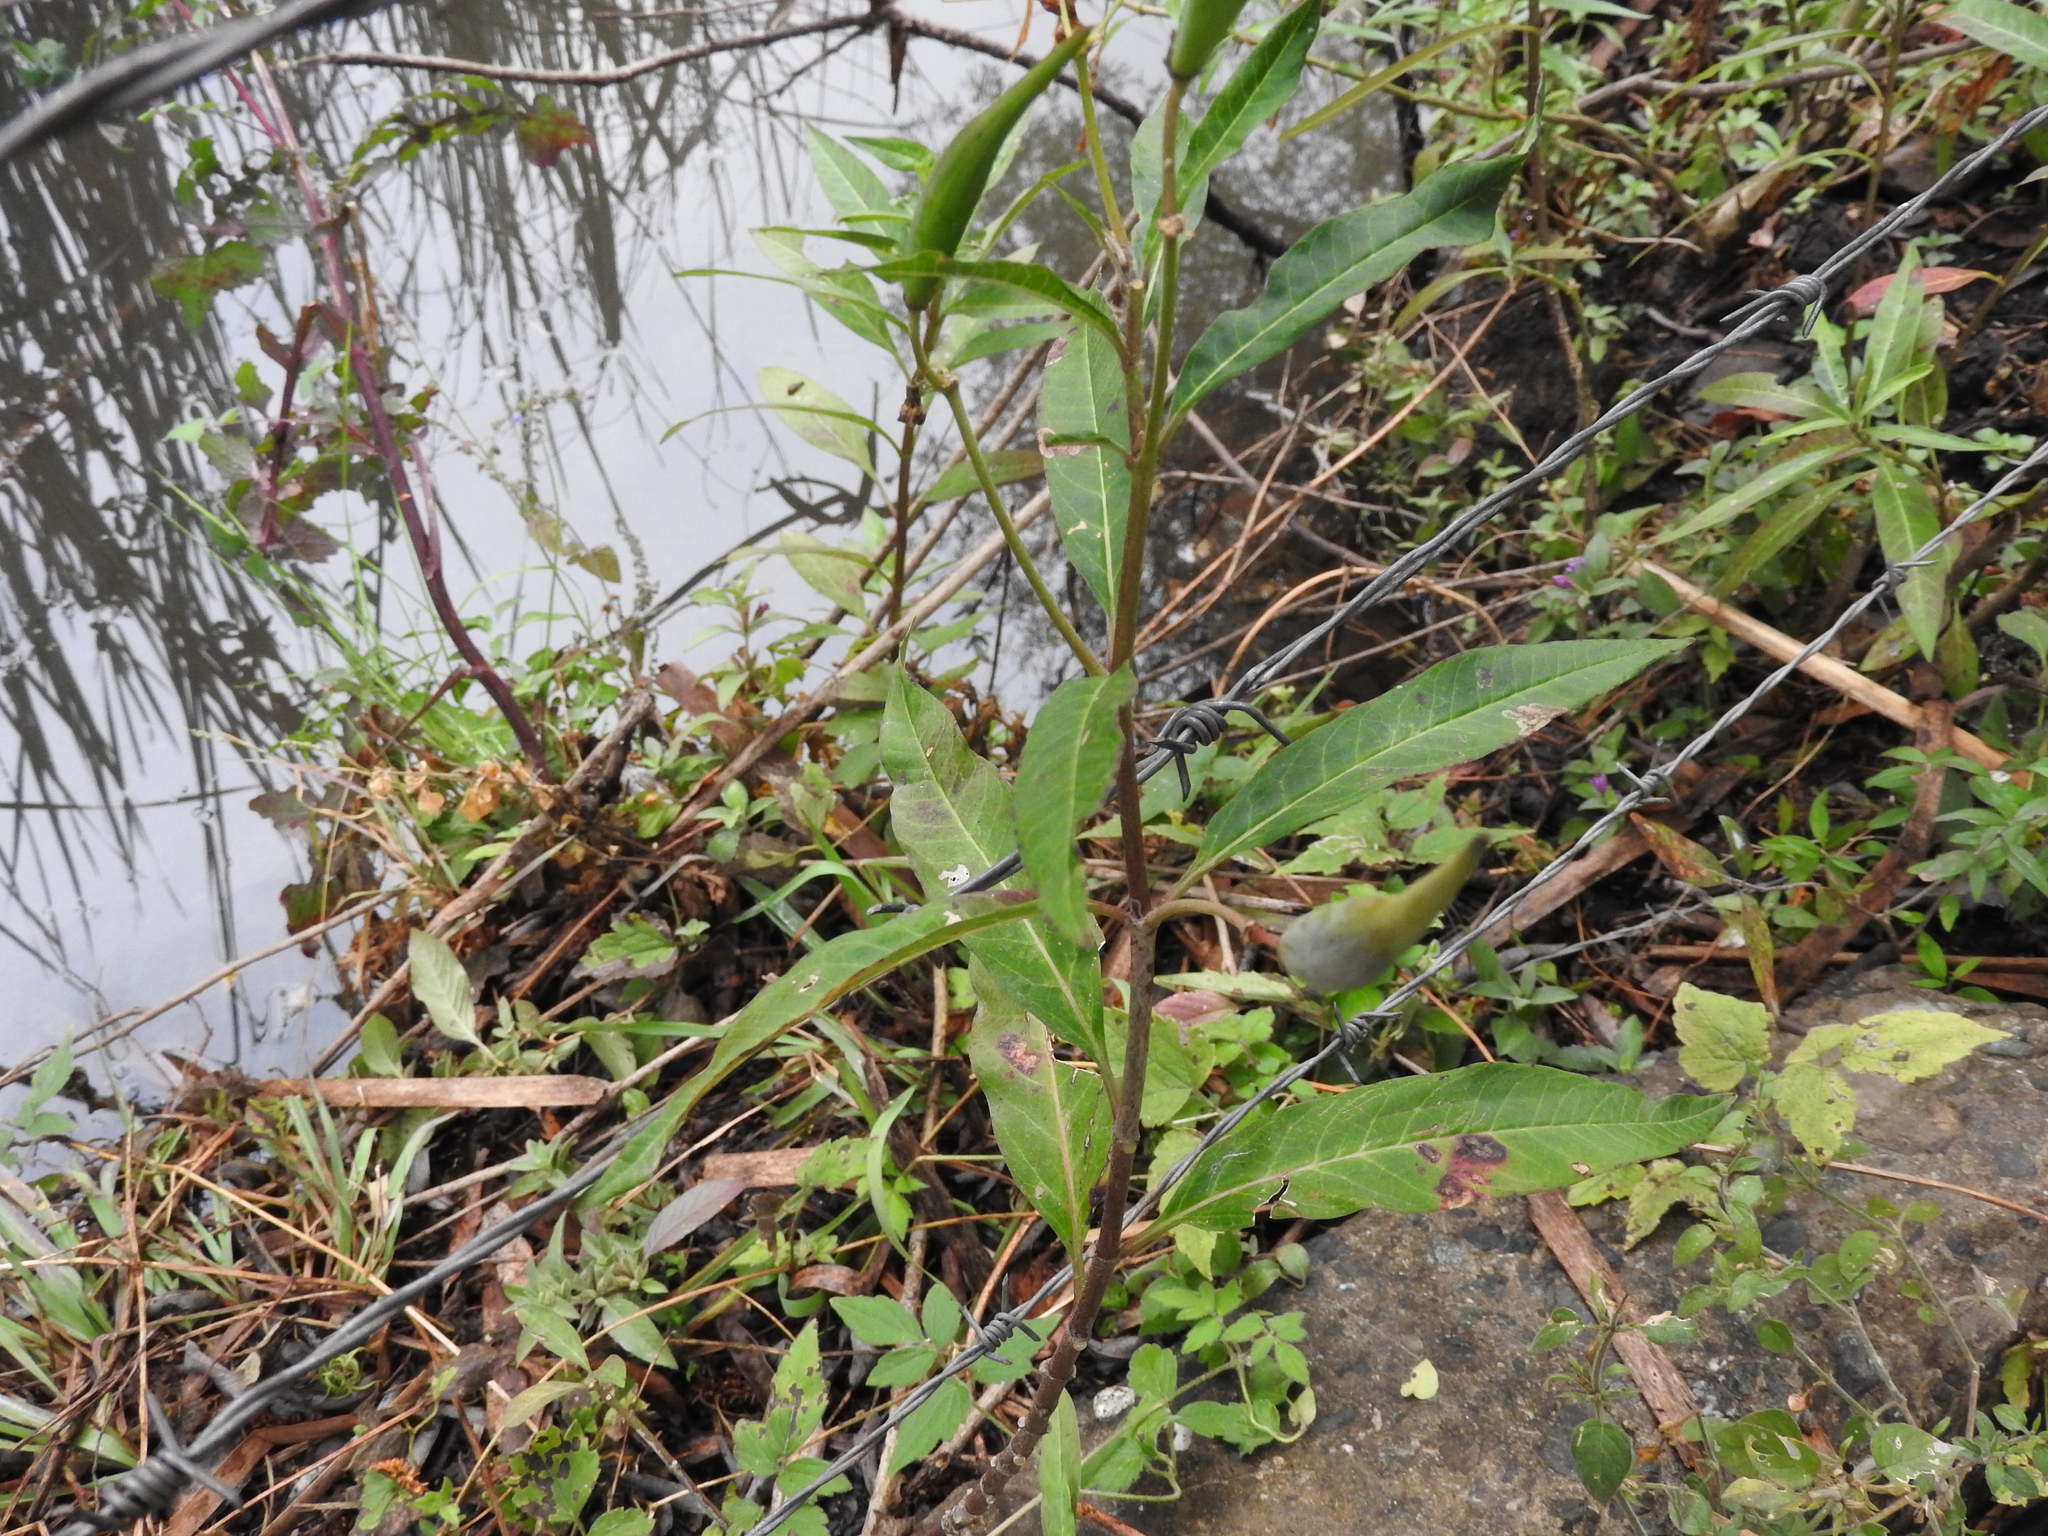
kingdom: Plantae
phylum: Tracheophyta
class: Magnoliopsida
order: Gentianales
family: Apocynaceae
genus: Asclepias
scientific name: Asclepias curassavica
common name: Bloodflower
